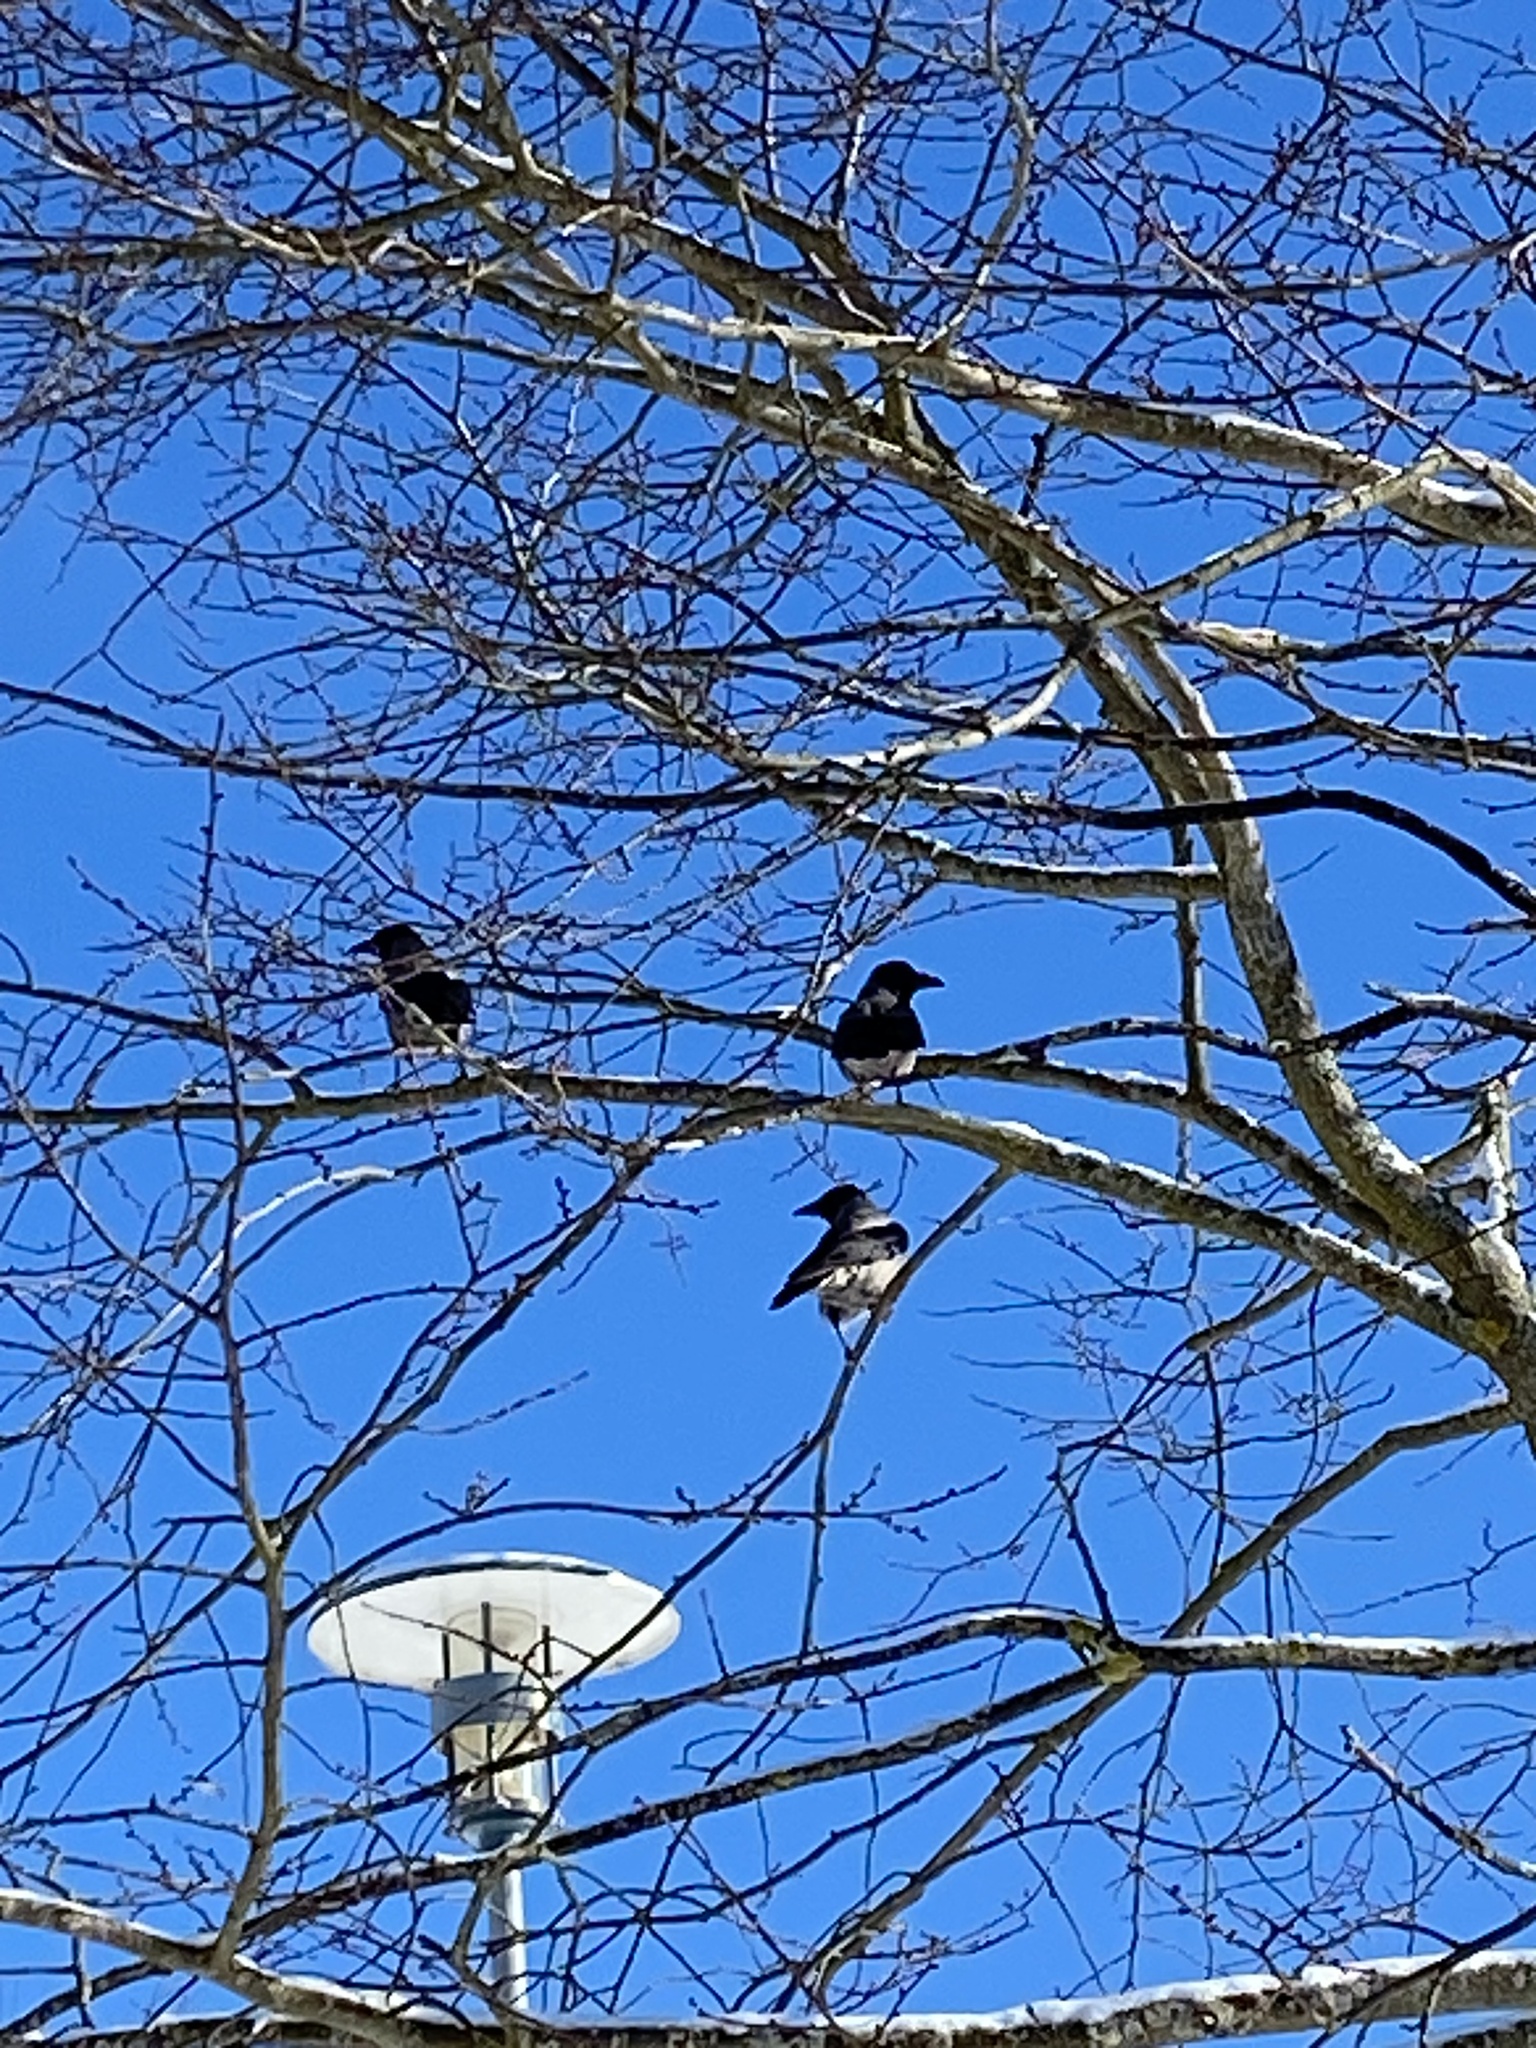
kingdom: Animalia
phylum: Chordata
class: Aves
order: Passeriformes
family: Corvidae
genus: Corvus
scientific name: Corvus cornix
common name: Hooded crow
